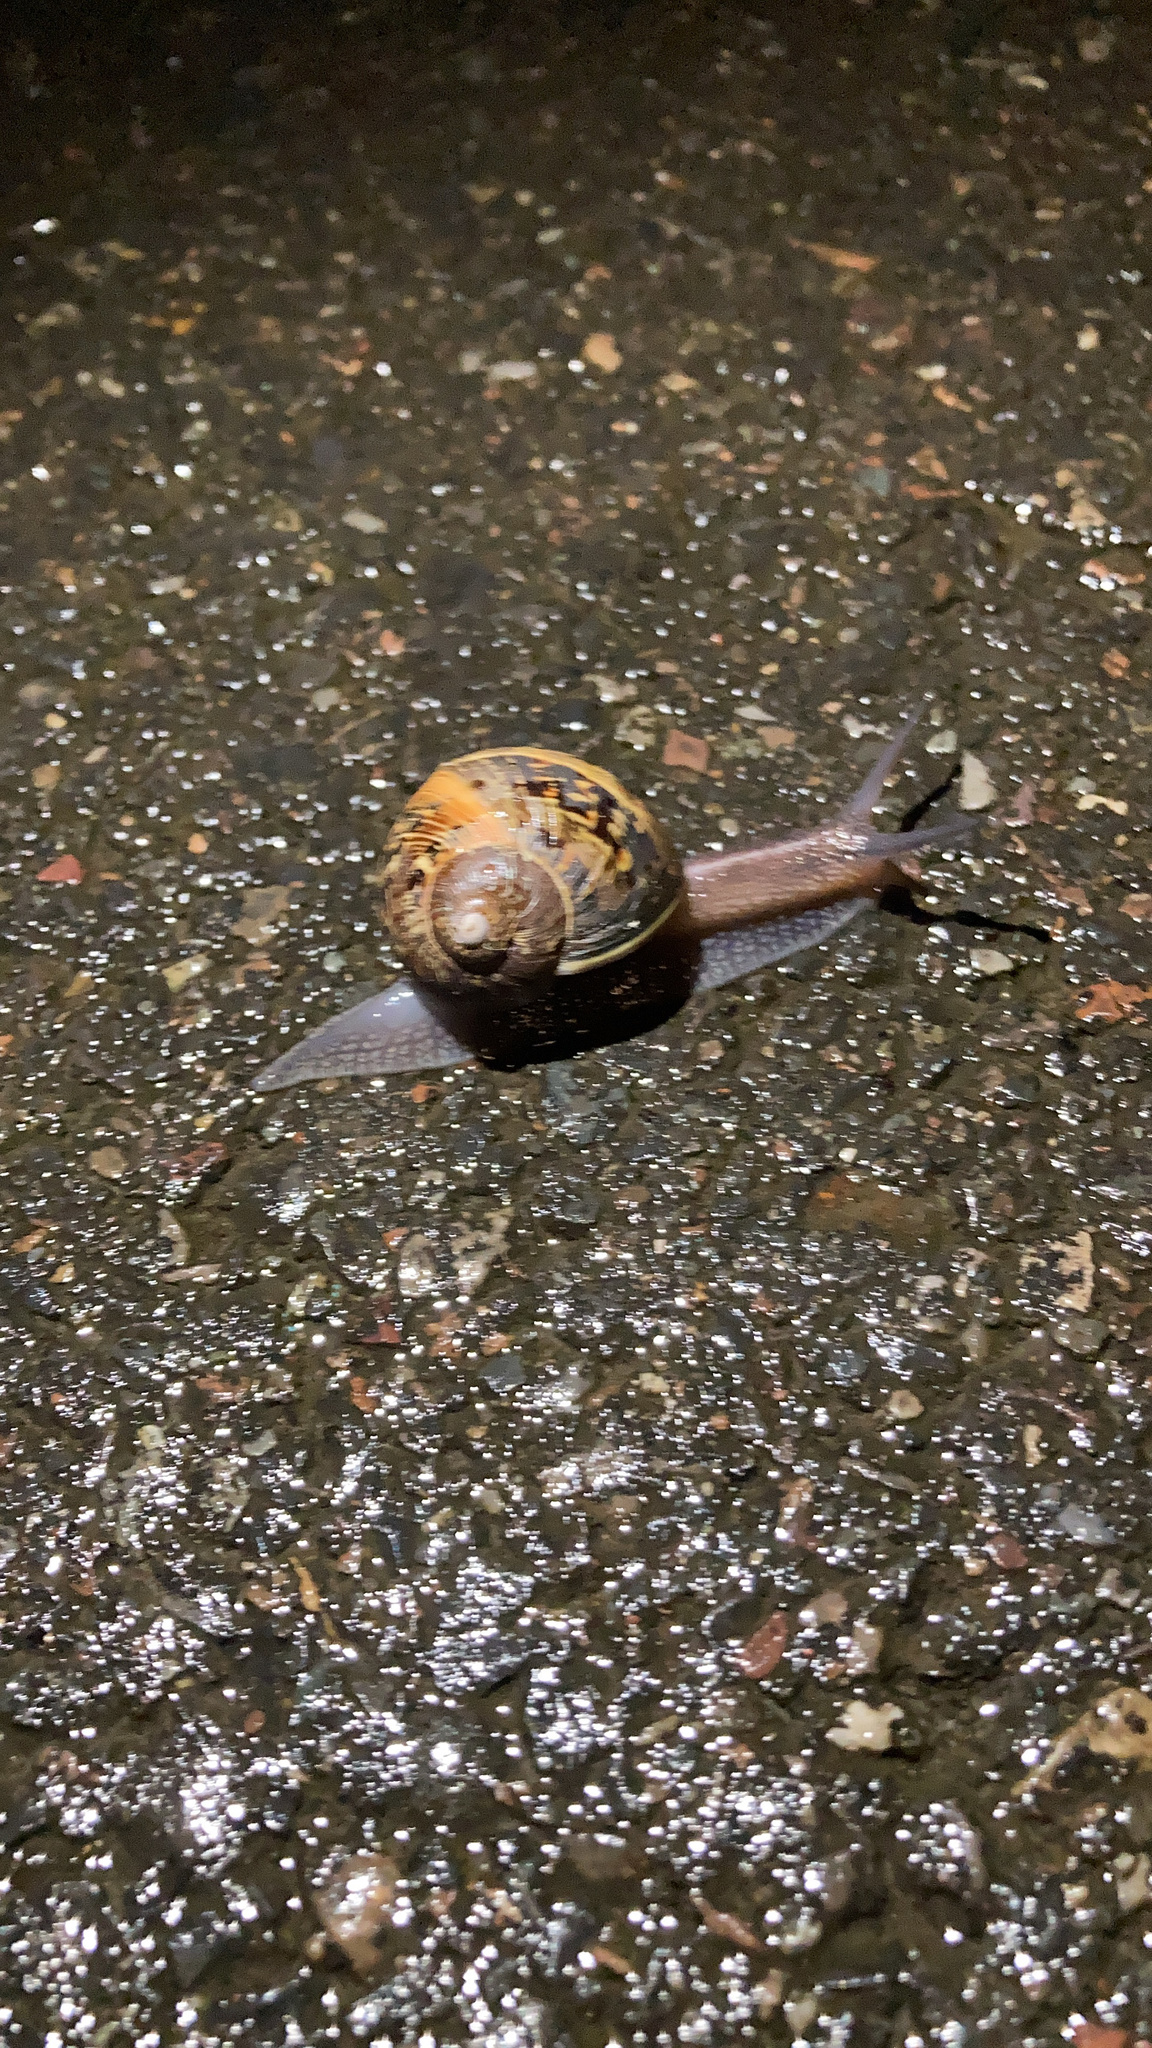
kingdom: Animalia
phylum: Mollusca
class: Gastropoda
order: Stylommatophora
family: Helicidae
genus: Cornu
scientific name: Cornu aspersum
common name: Brown garden snail
